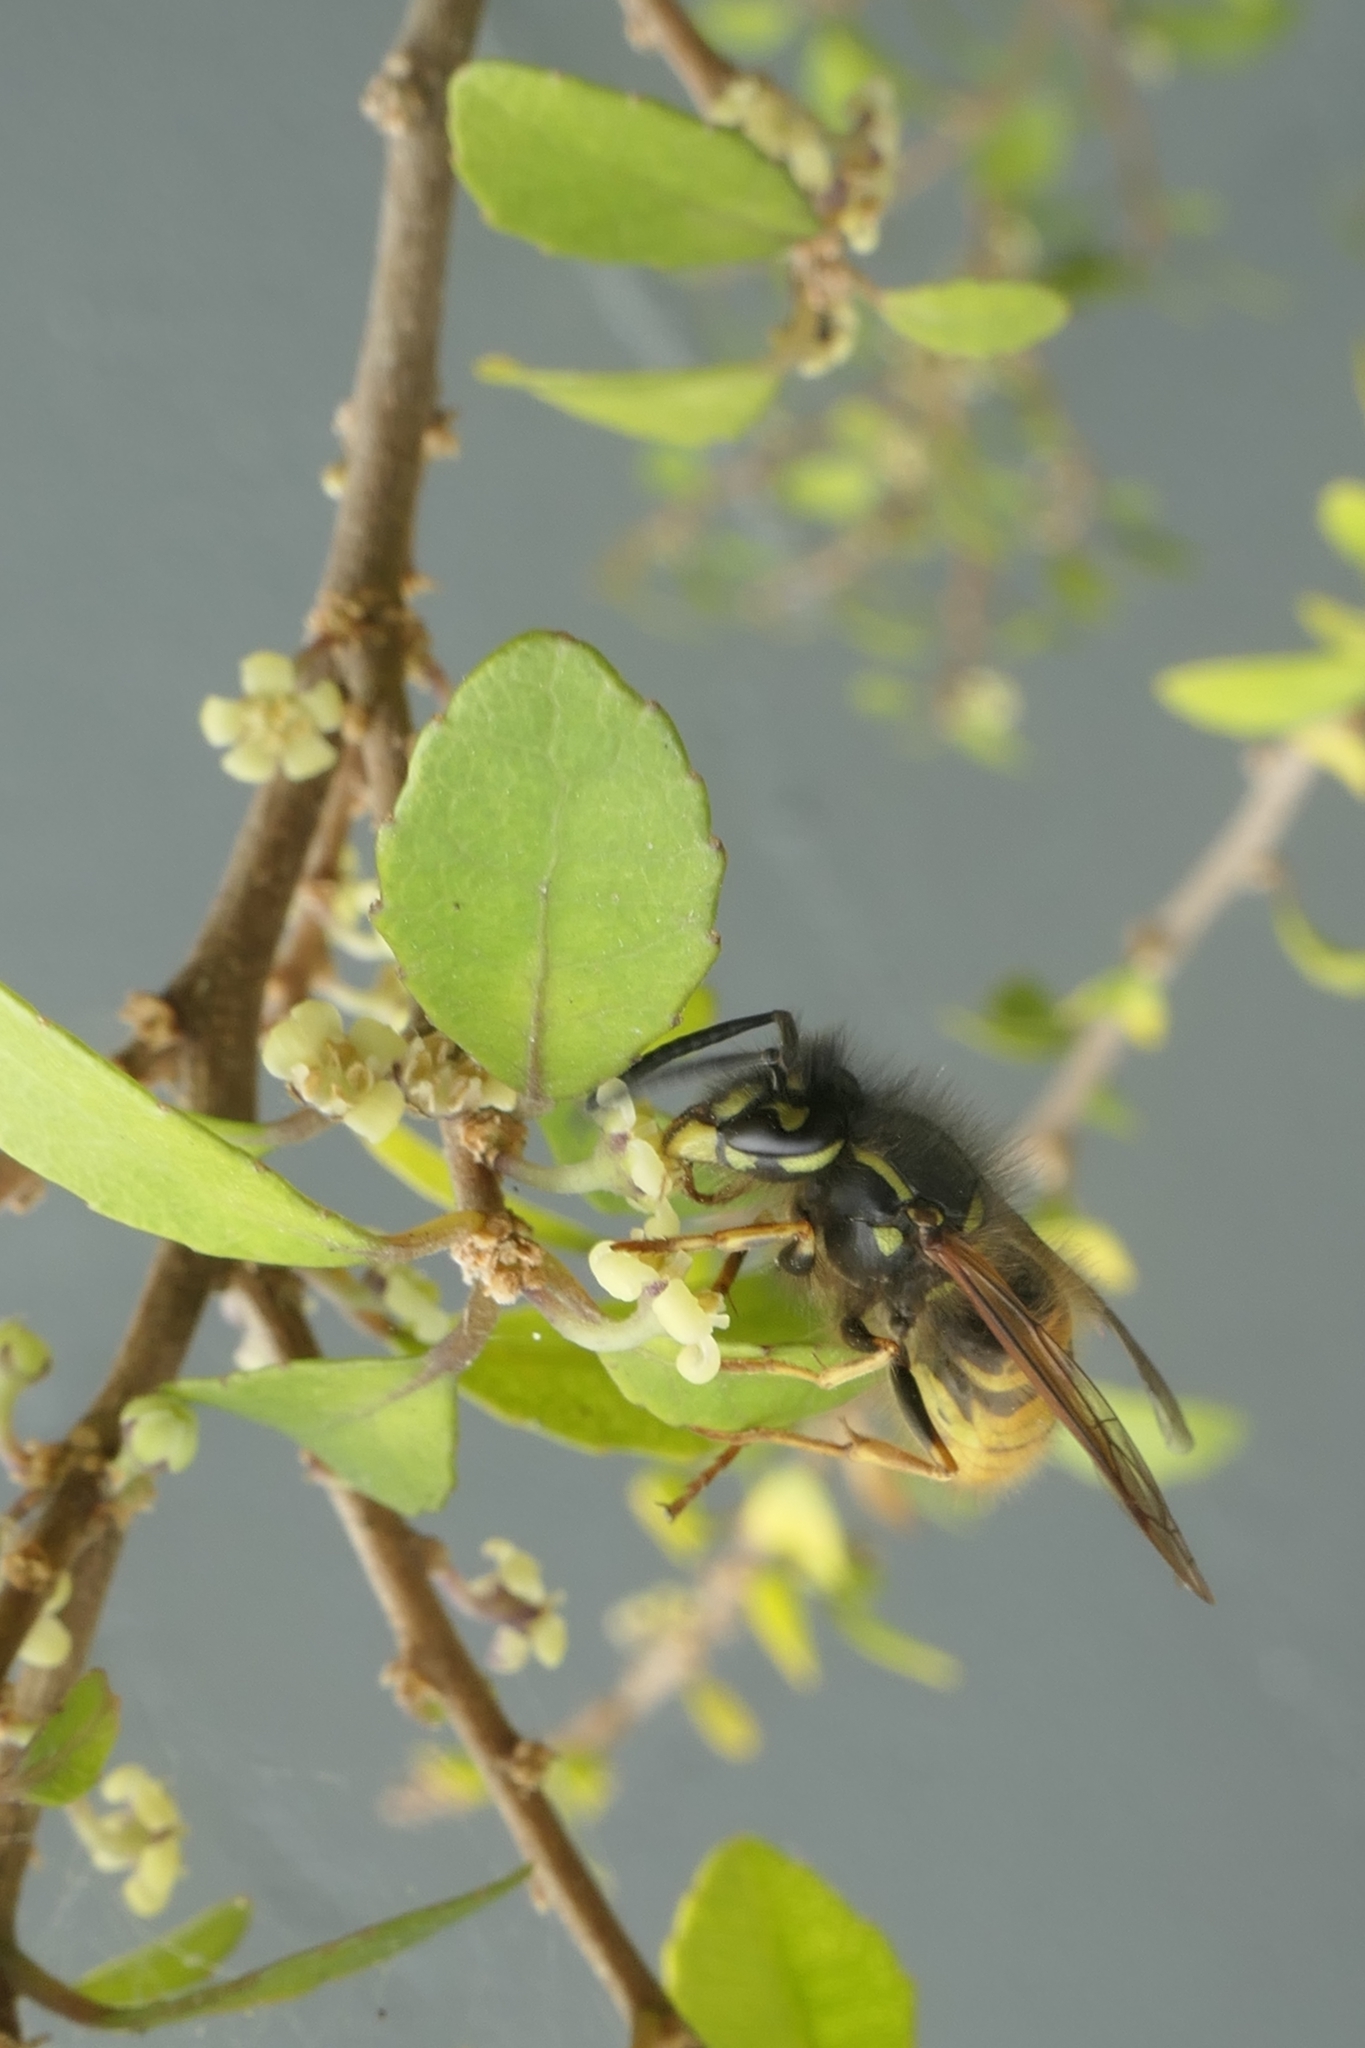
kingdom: Animalia
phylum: Arthropoda
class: Insecta
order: Hymenoptera
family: Vespidae
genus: Vespula
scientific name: Vespula vulgaris
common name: Common wasp
